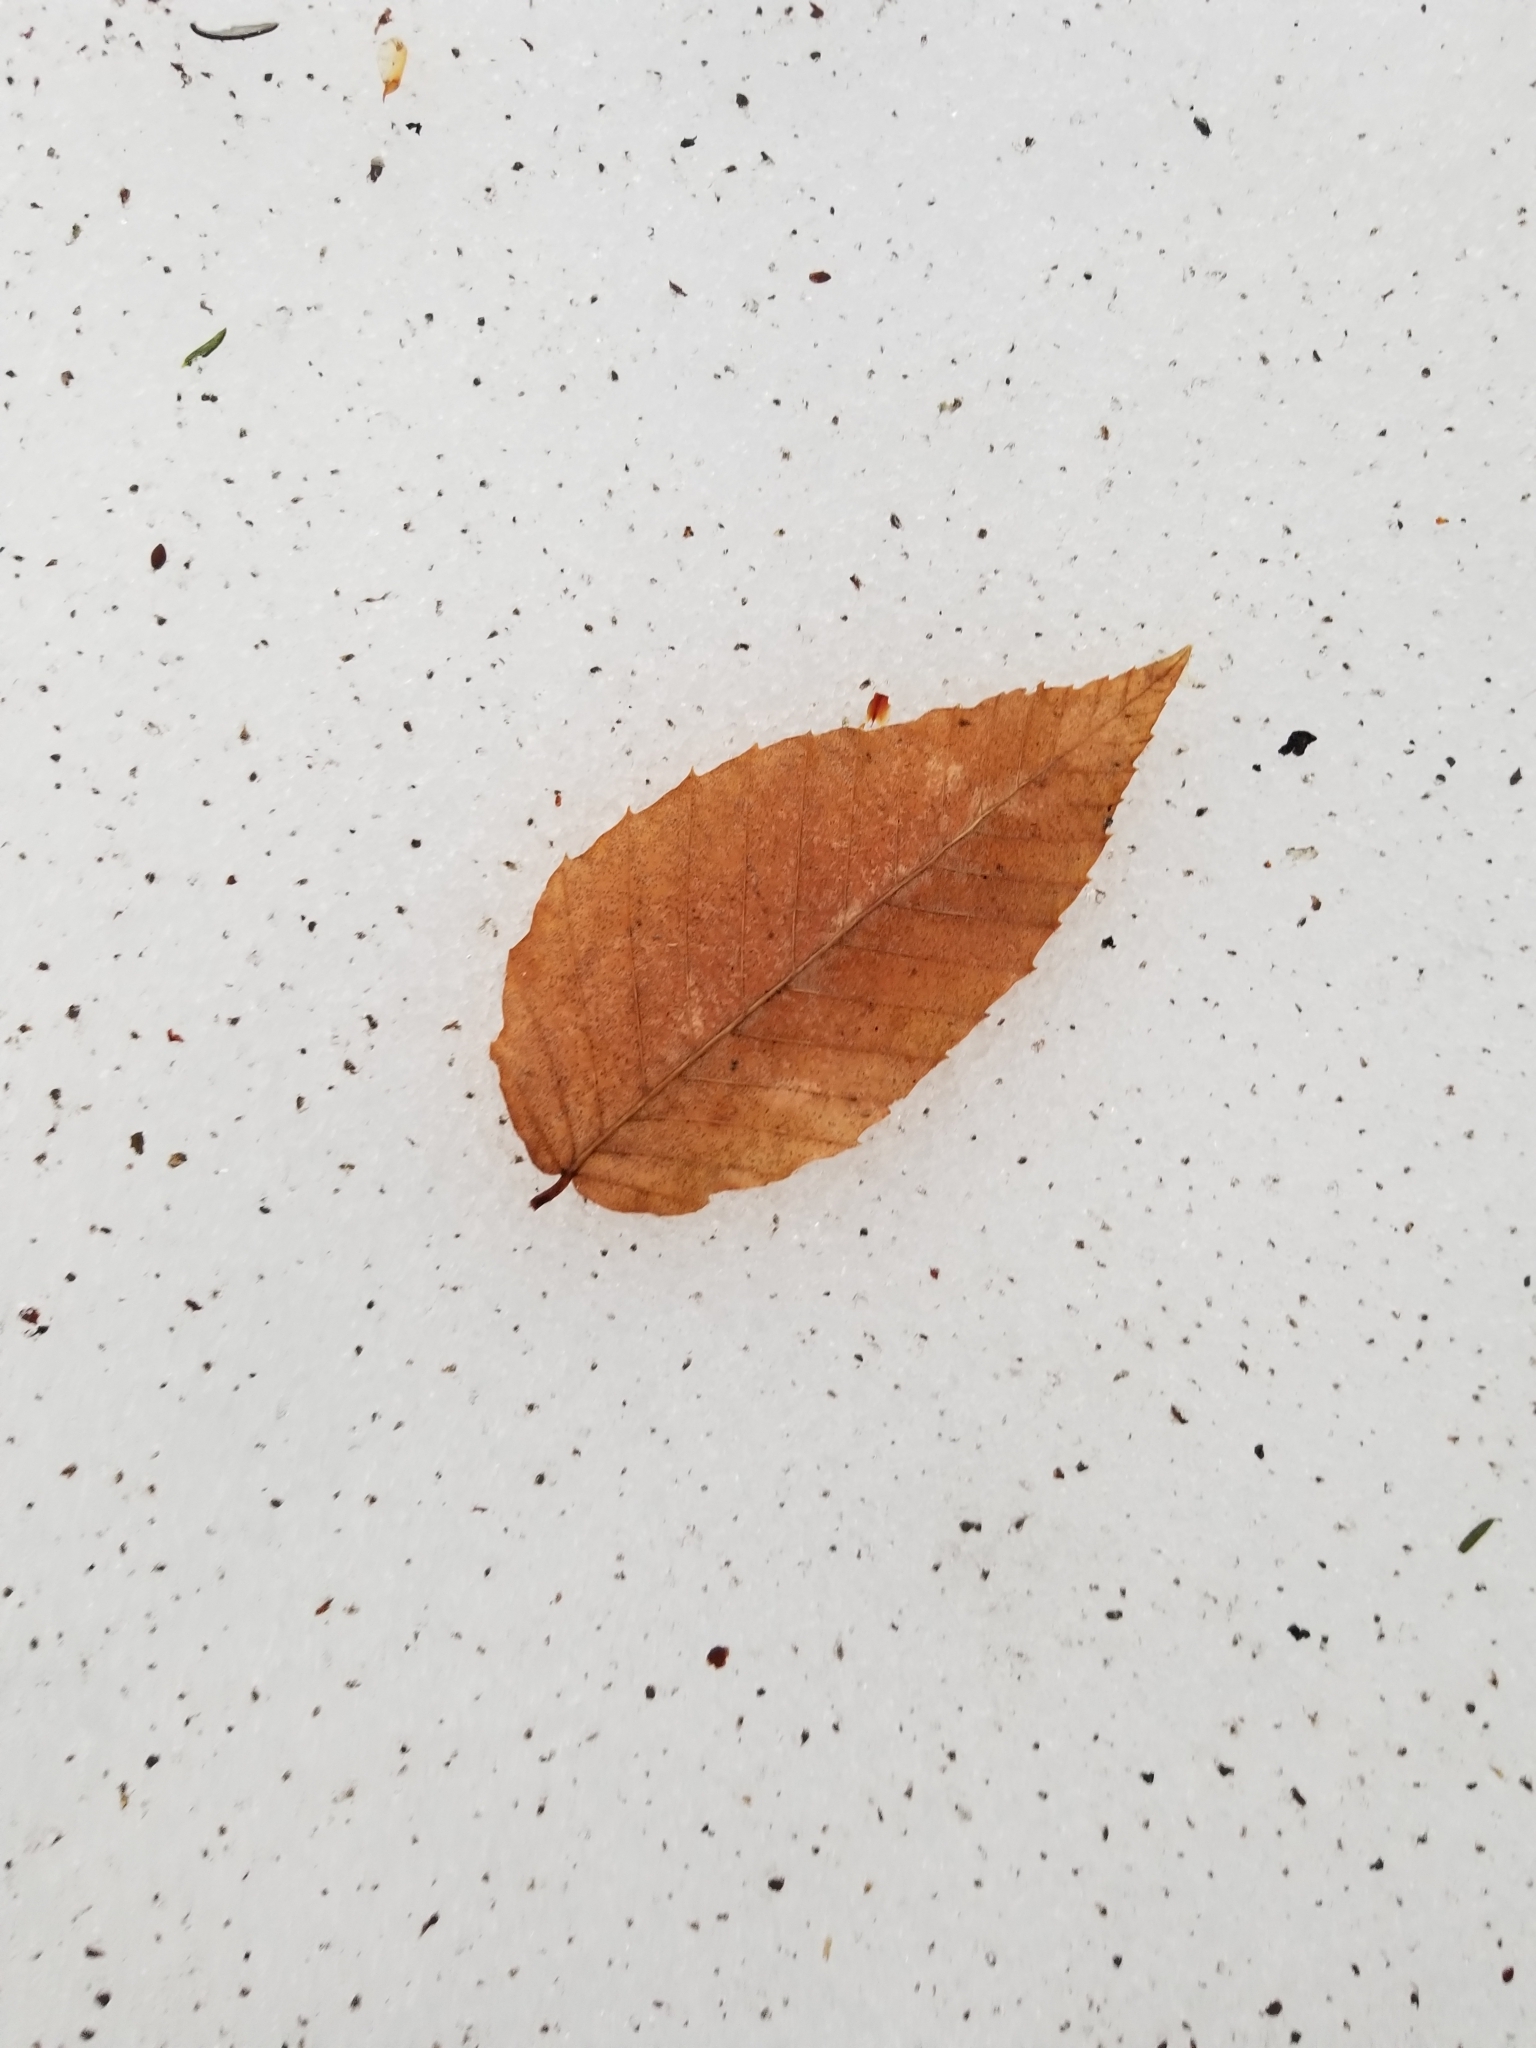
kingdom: Plantae
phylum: Tracheophyta
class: Magnoliopsida
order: Fagales
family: Fagaceae
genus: Fagus
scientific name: Fagus grandifolia
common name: American beech
